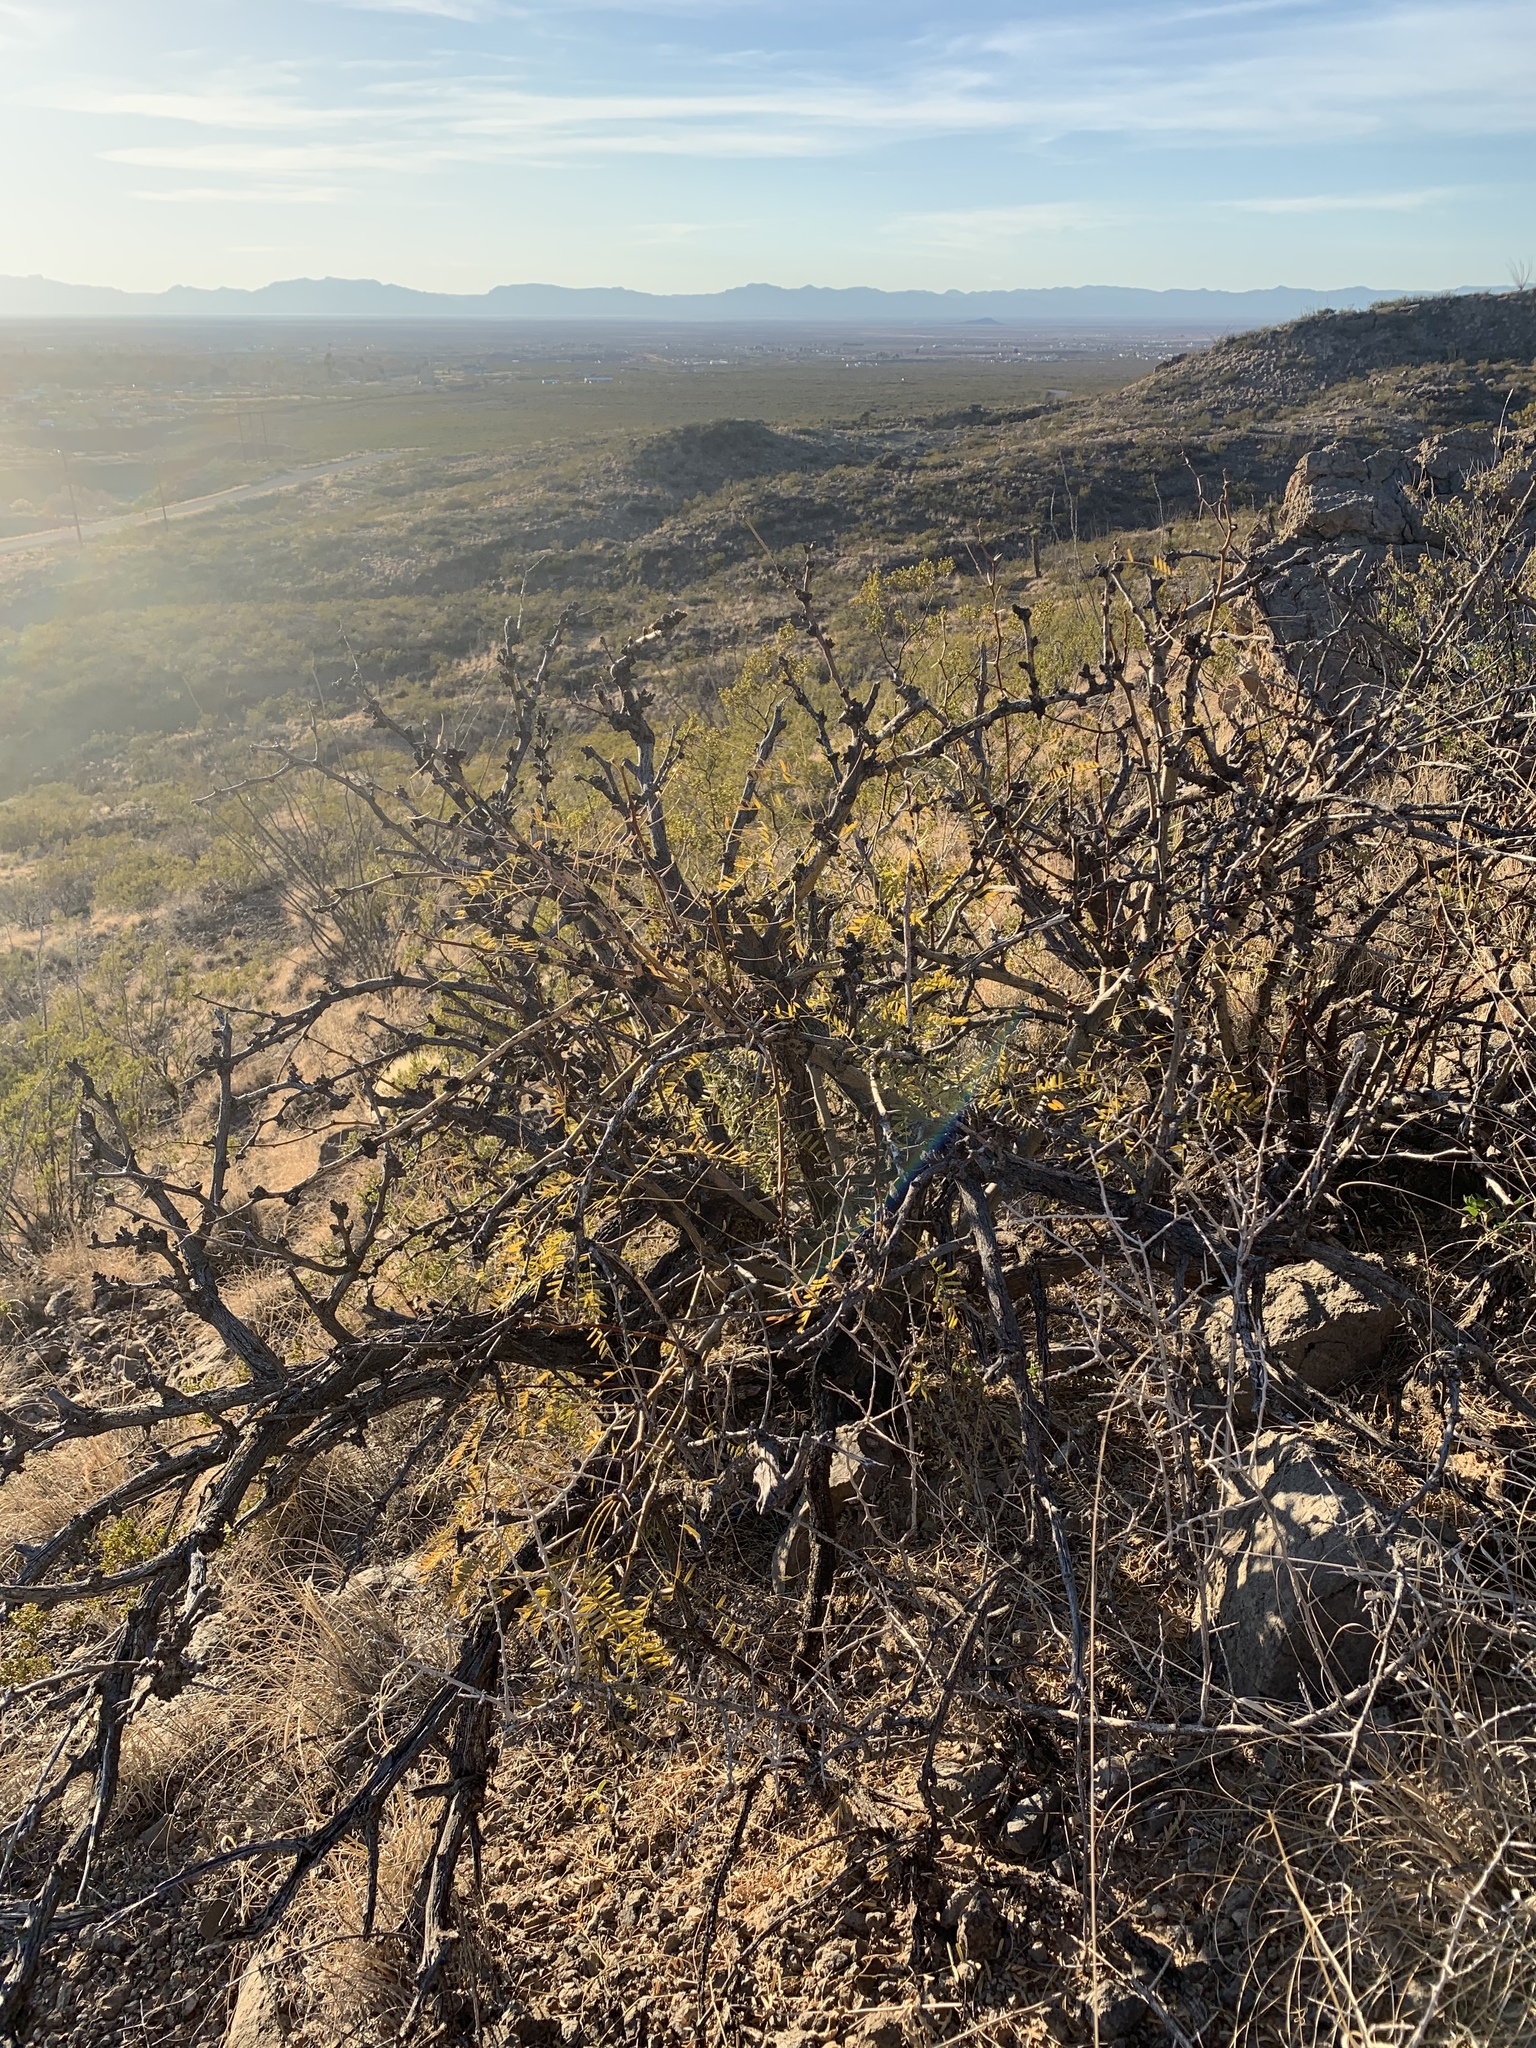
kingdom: Plantae
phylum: Tracheophyta
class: Magnoliopsida
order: Fabales
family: Fabaceae
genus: Prosopis
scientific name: Prosopis glandulosa
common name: Honey mesquite
